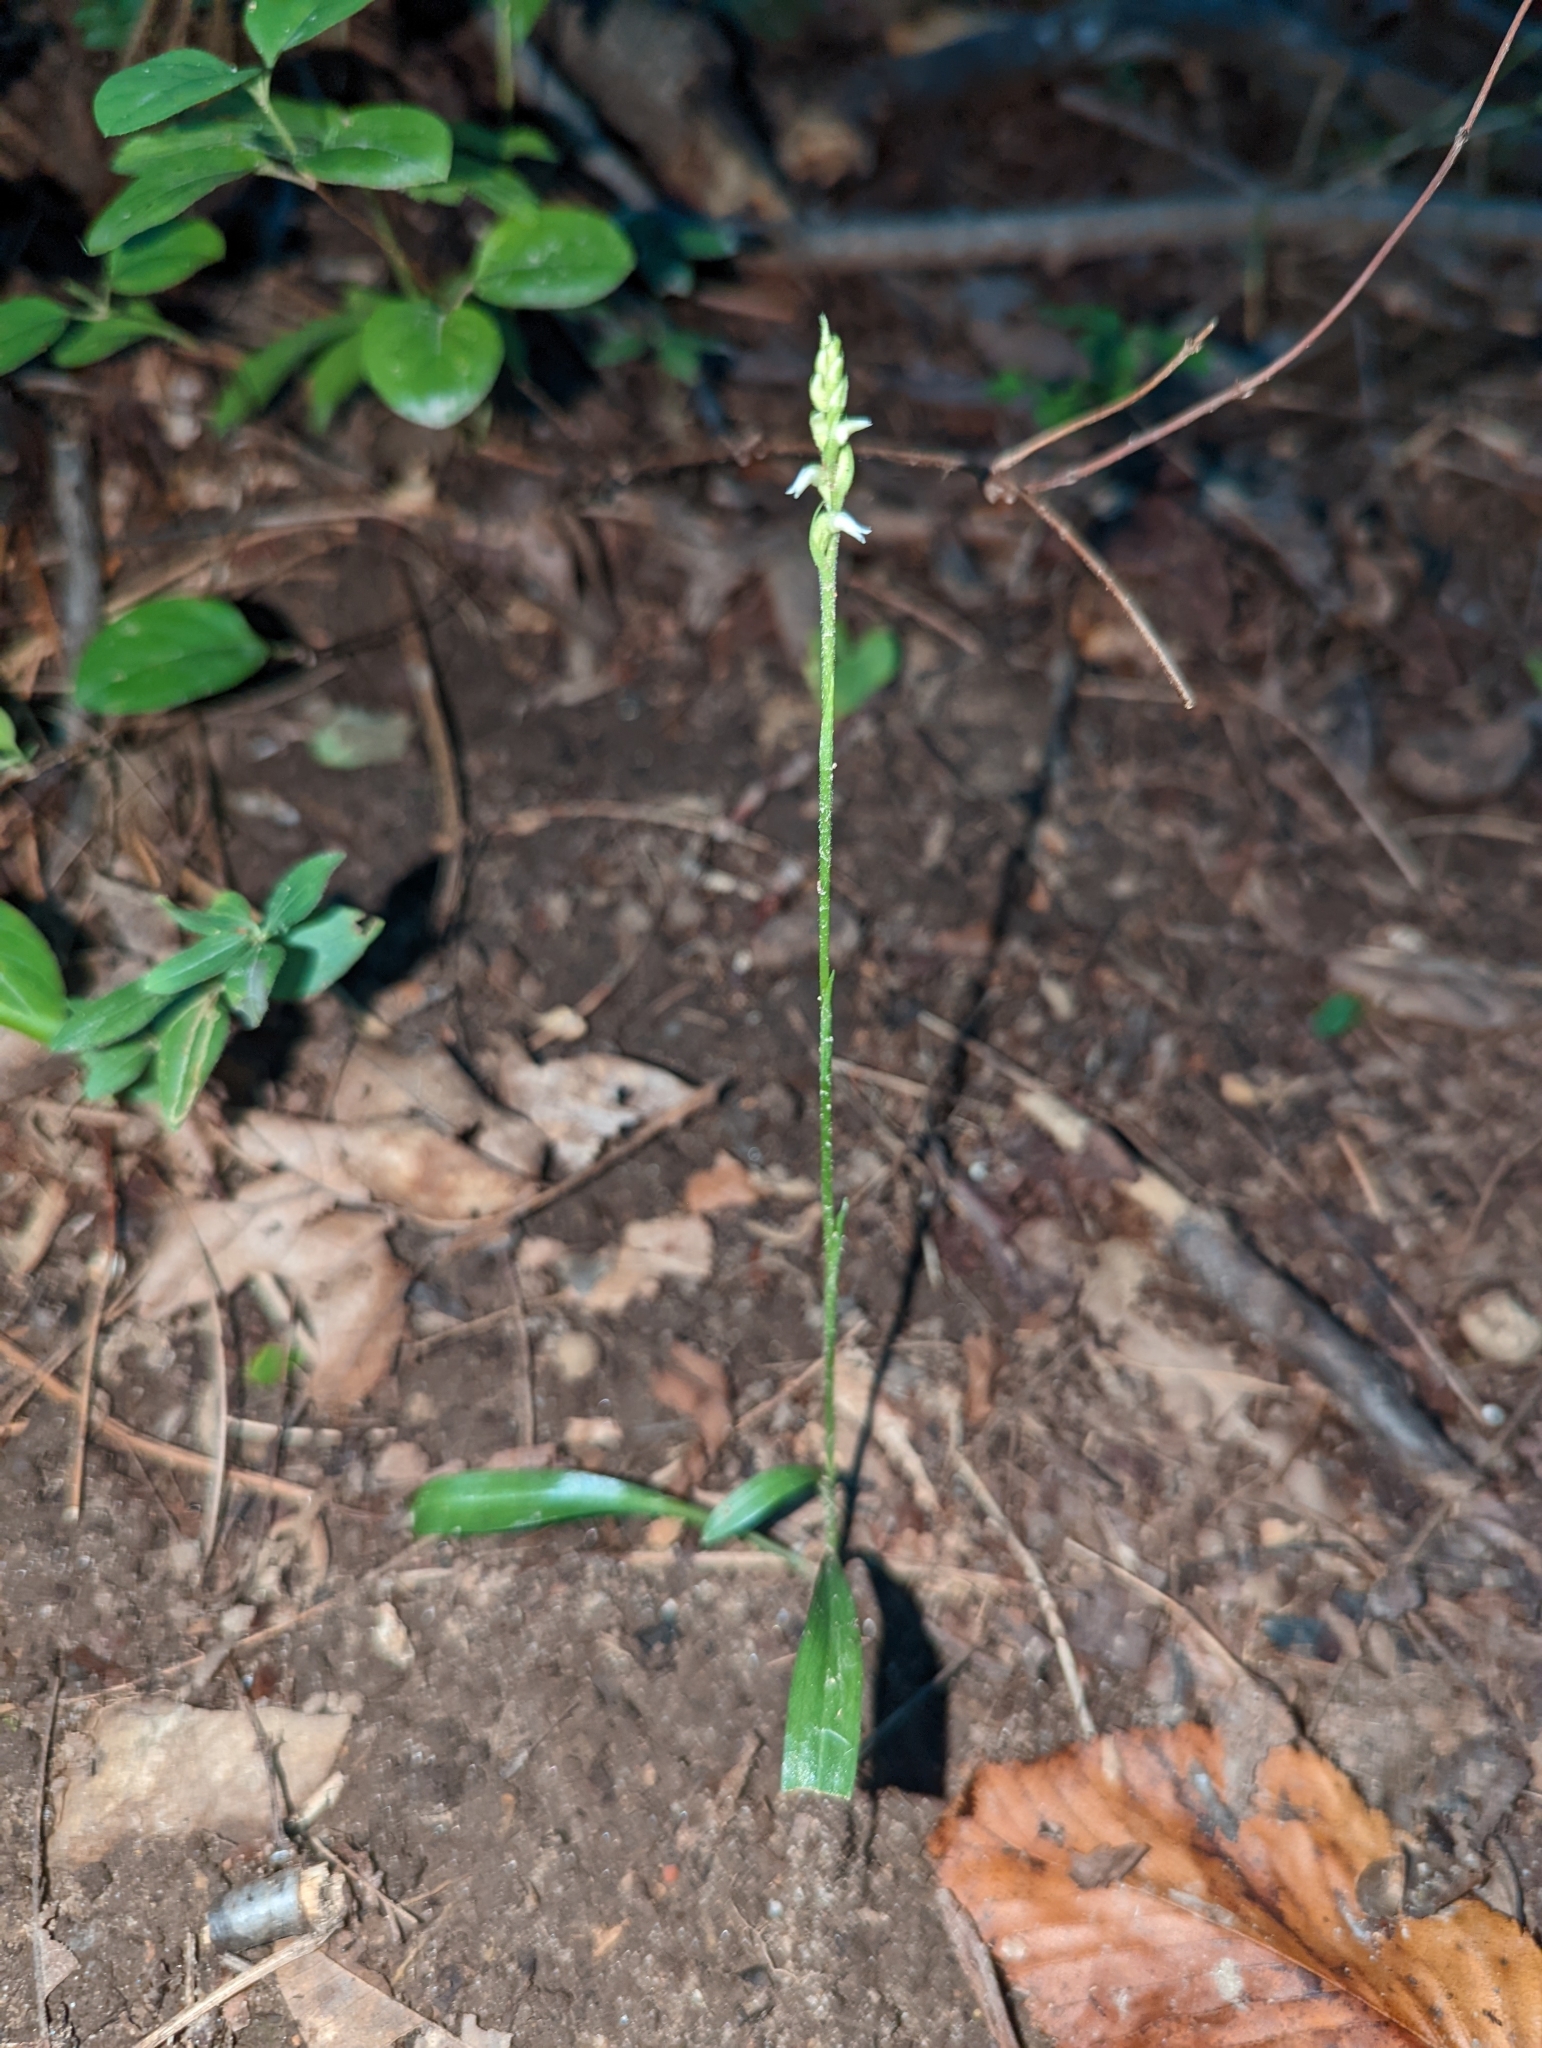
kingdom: Plantae
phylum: Tracheophyta
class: Liliopsida
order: Asparagales
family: Orchidaceae
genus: Spiranthes
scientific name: Spiranthes ovalis
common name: October ladies'-tresses
